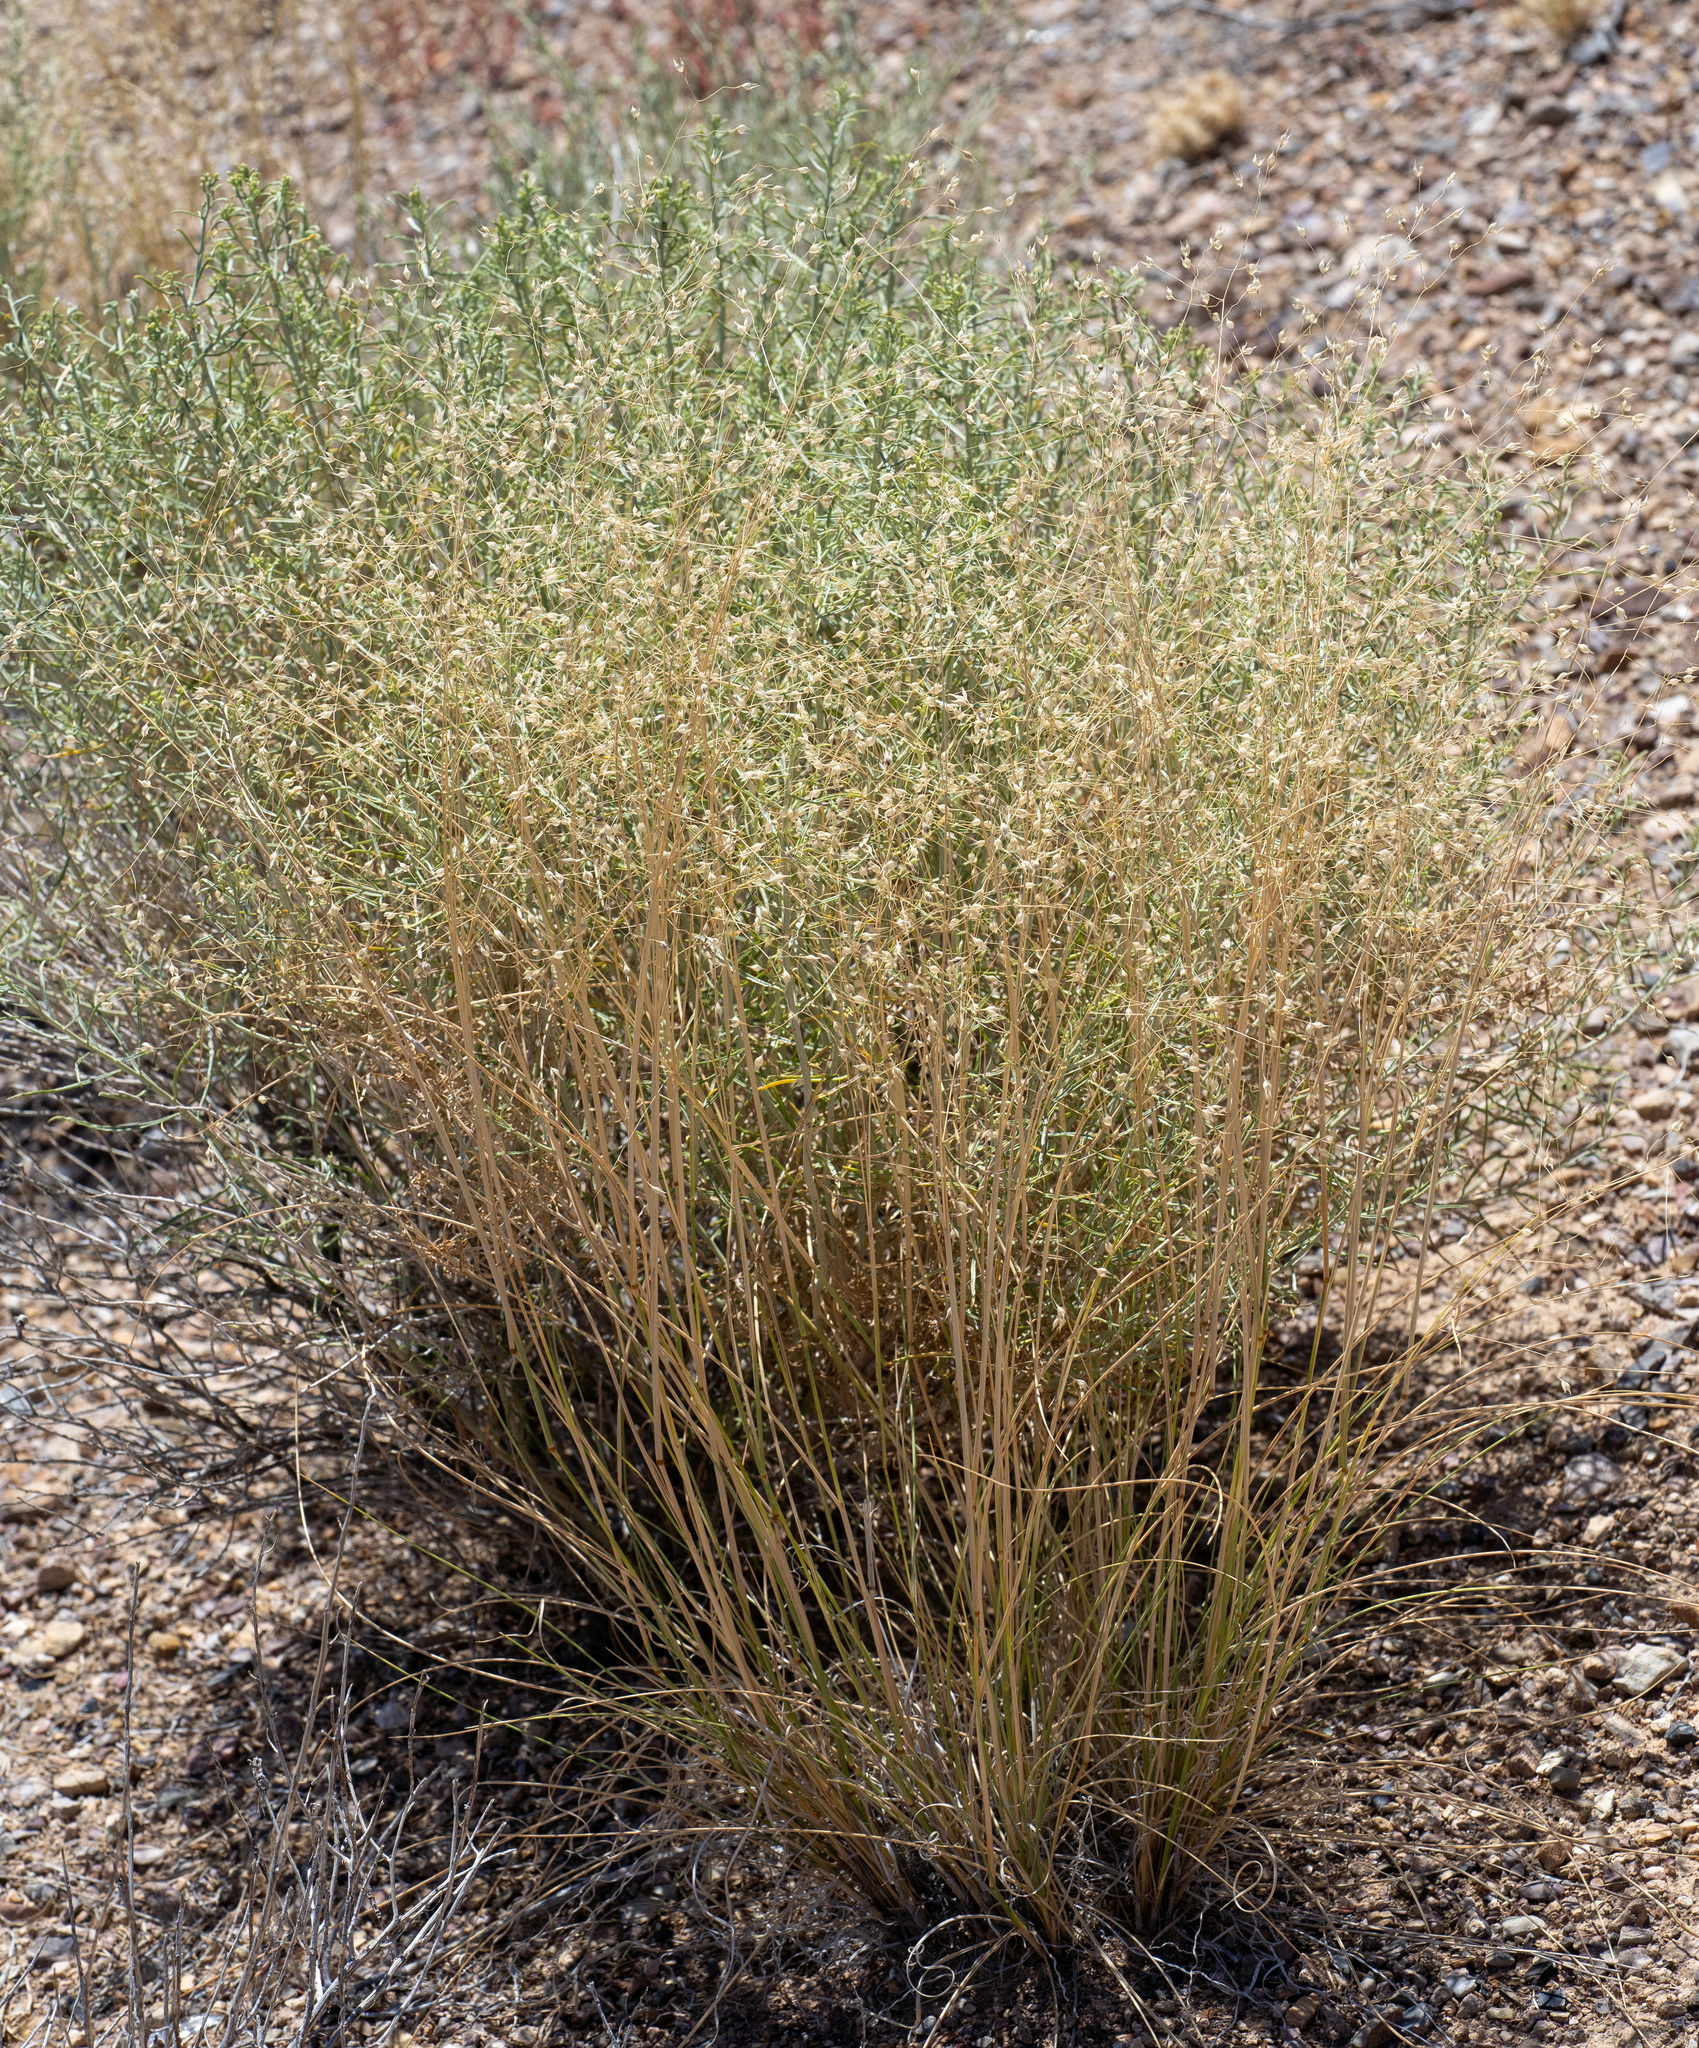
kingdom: Plantae
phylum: Tracheophyta
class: Liliopsida
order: Poales
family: Poaceae
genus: Eriocoma
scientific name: Eriocoma hymenoides
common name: Indian mountain ricegrass
